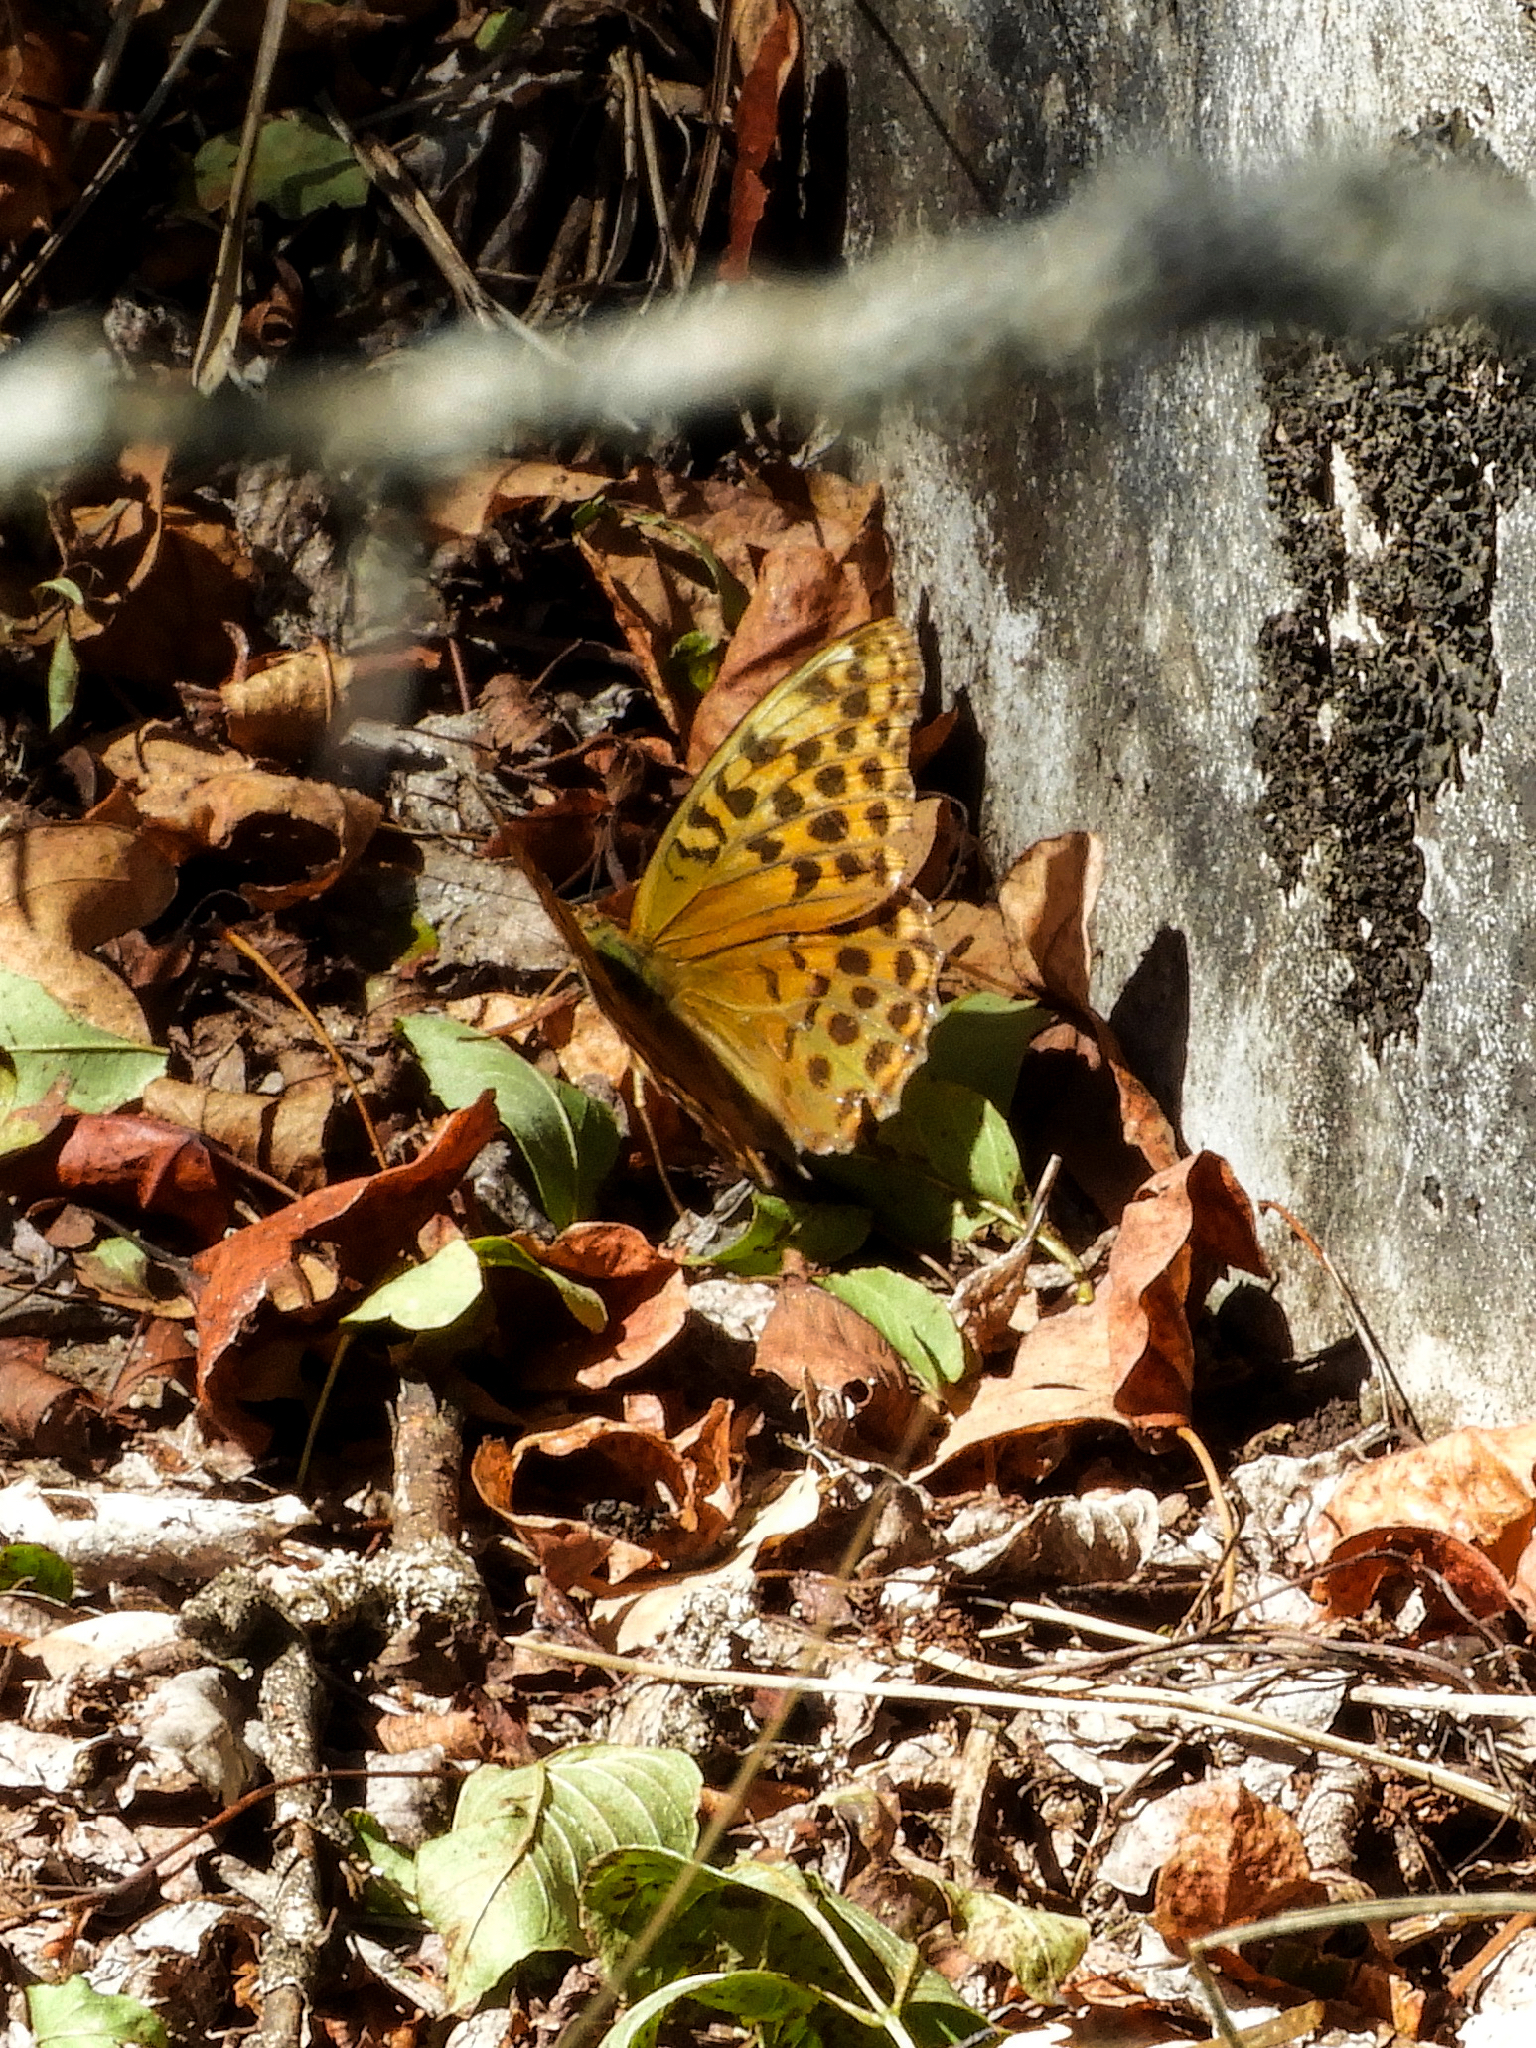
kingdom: Animalia
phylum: Arthropoda
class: Insecta
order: Lepidoptera
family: Nymphalidae
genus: Argynnis
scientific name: Argynnis paphia
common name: Silver-washed fritillary
